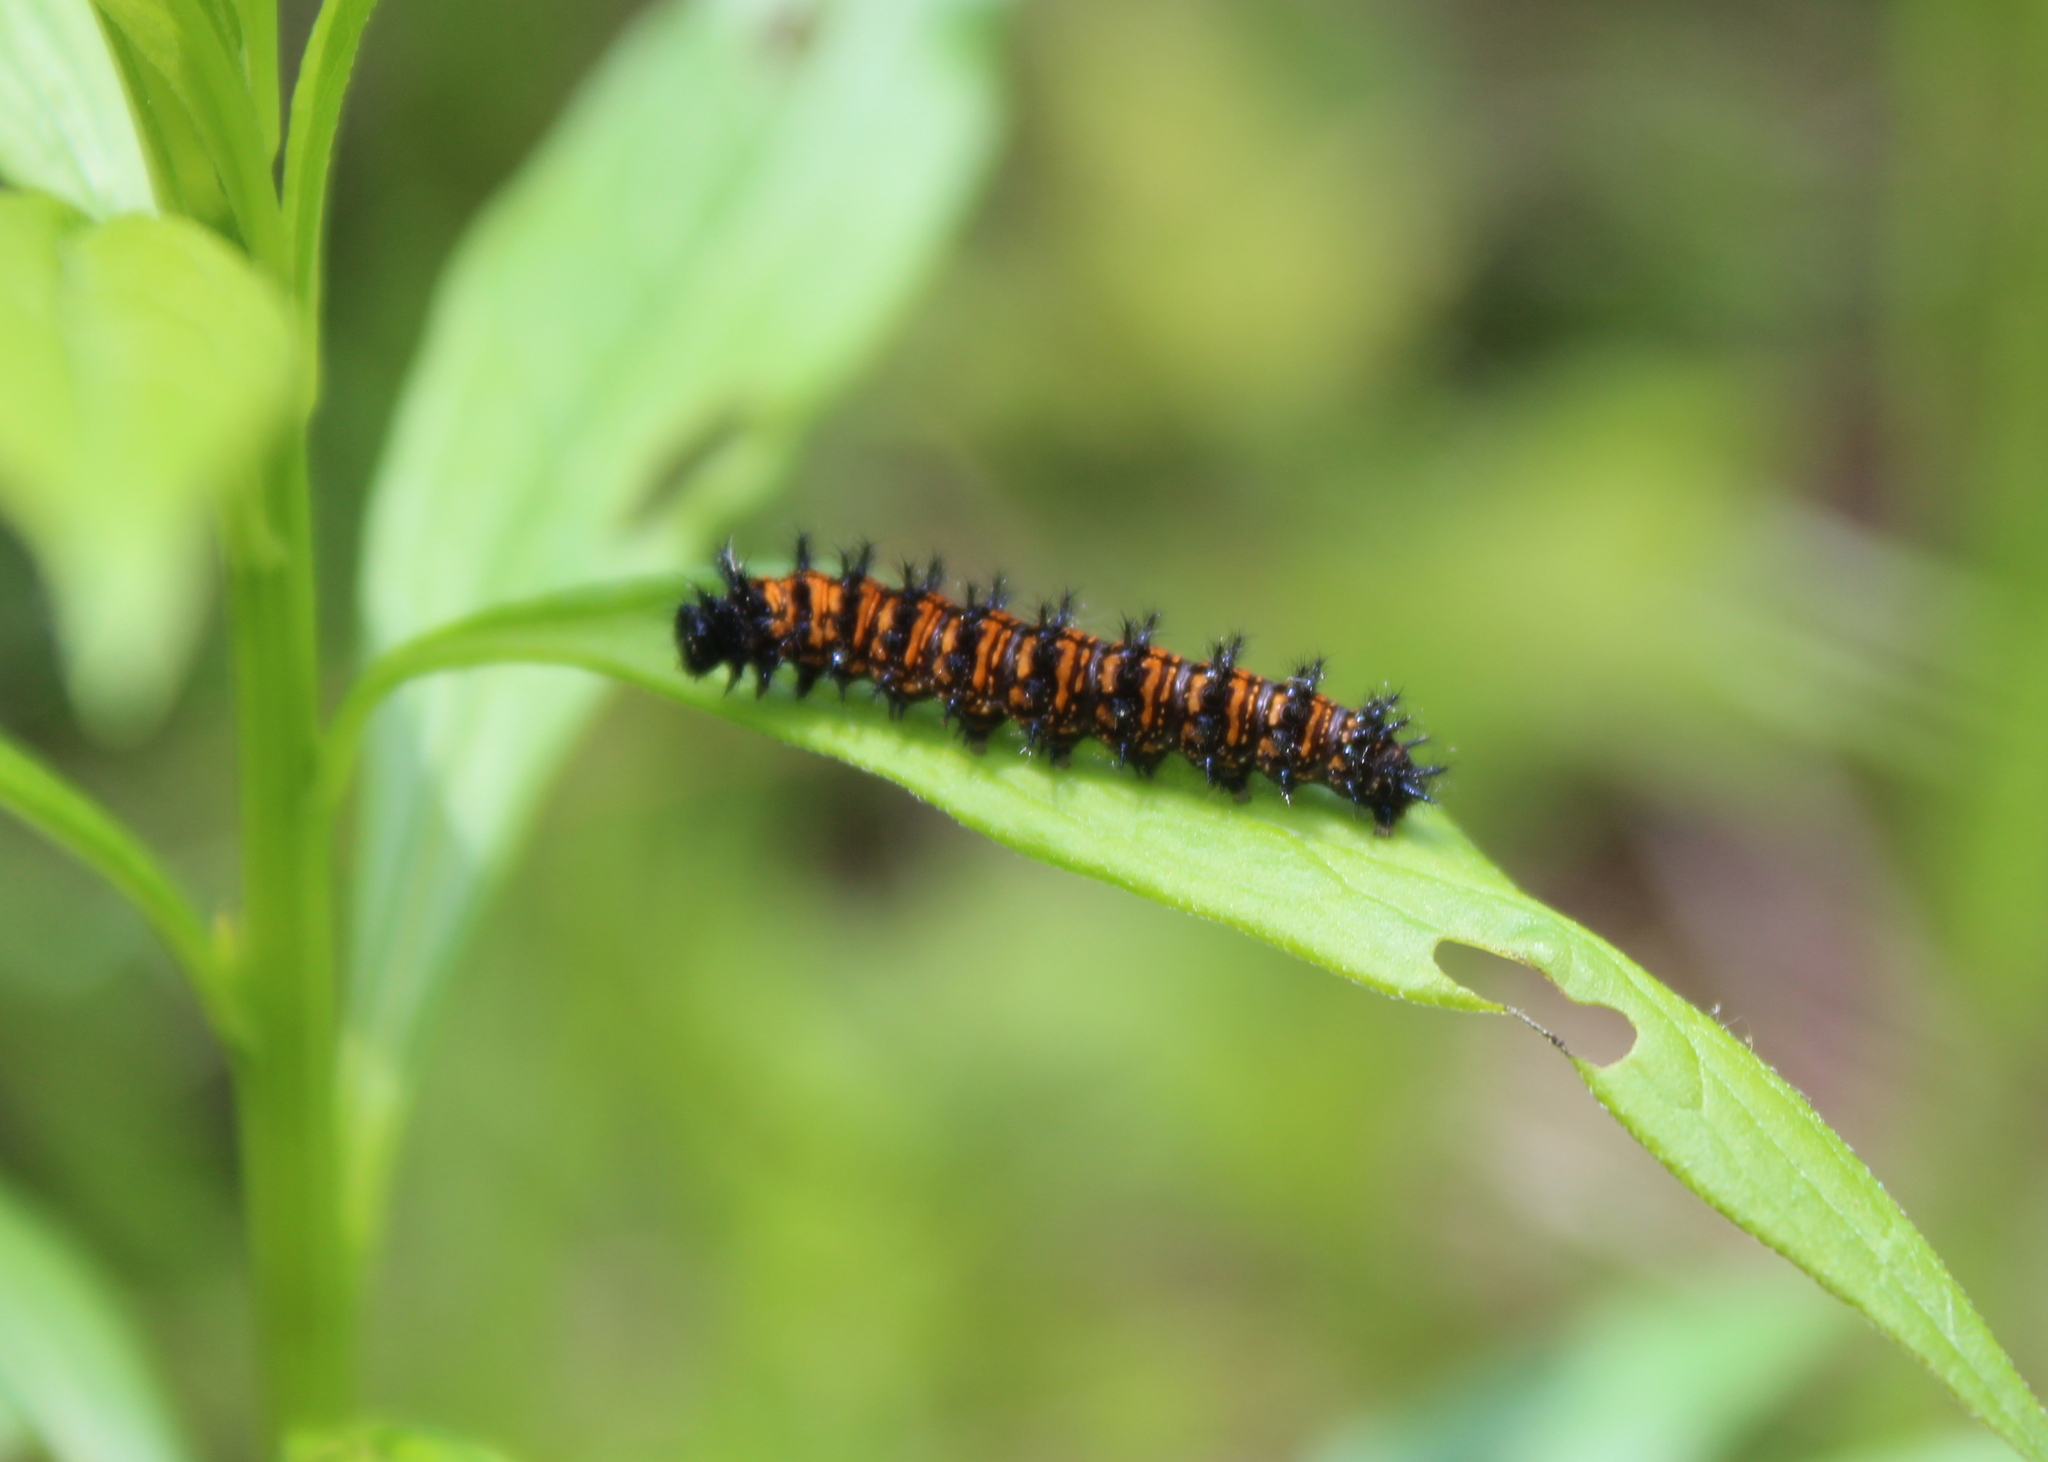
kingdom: Animalia
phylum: Arthropoda
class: Insecta
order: Lepidoptera
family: Nymphalidae
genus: Euphydryas
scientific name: Euphydryas phaeton
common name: Baltimore checkerspot
